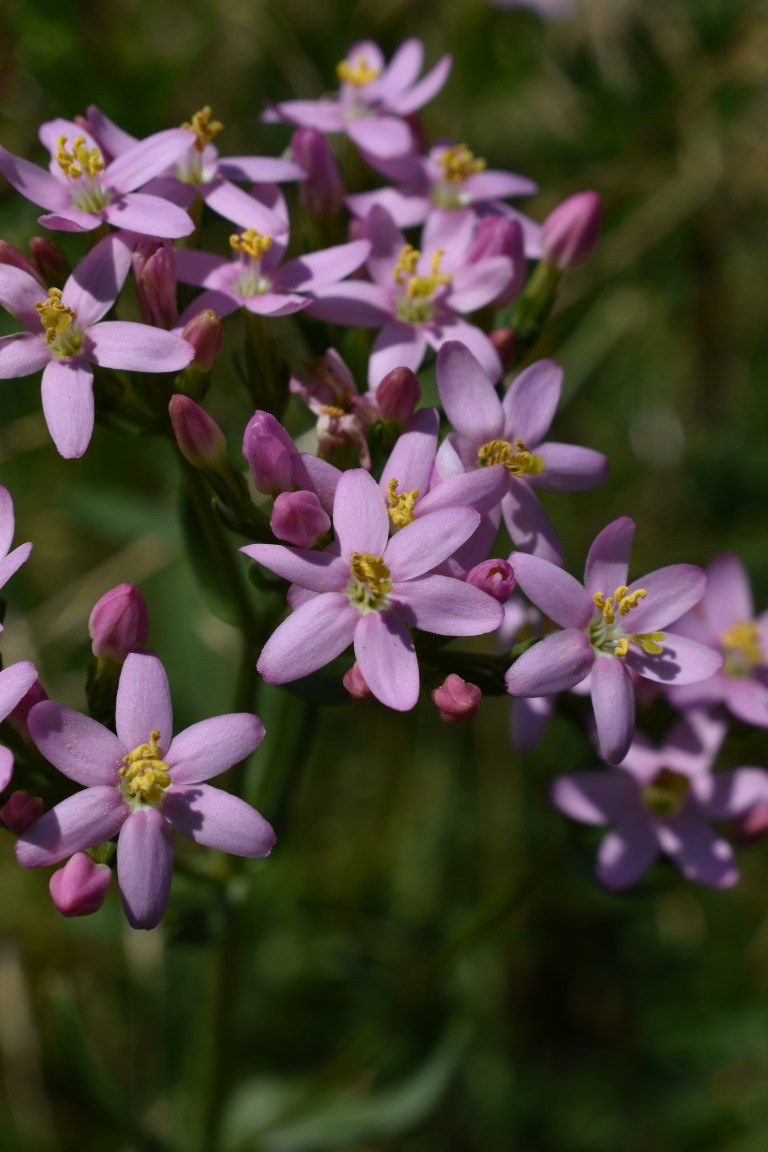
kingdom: Plantae
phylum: Tracheophyta
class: Magnoliopsida
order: Gentianales
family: Gentianaceae
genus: Centaurium
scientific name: Centaurium erythraea
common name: Common centaury
